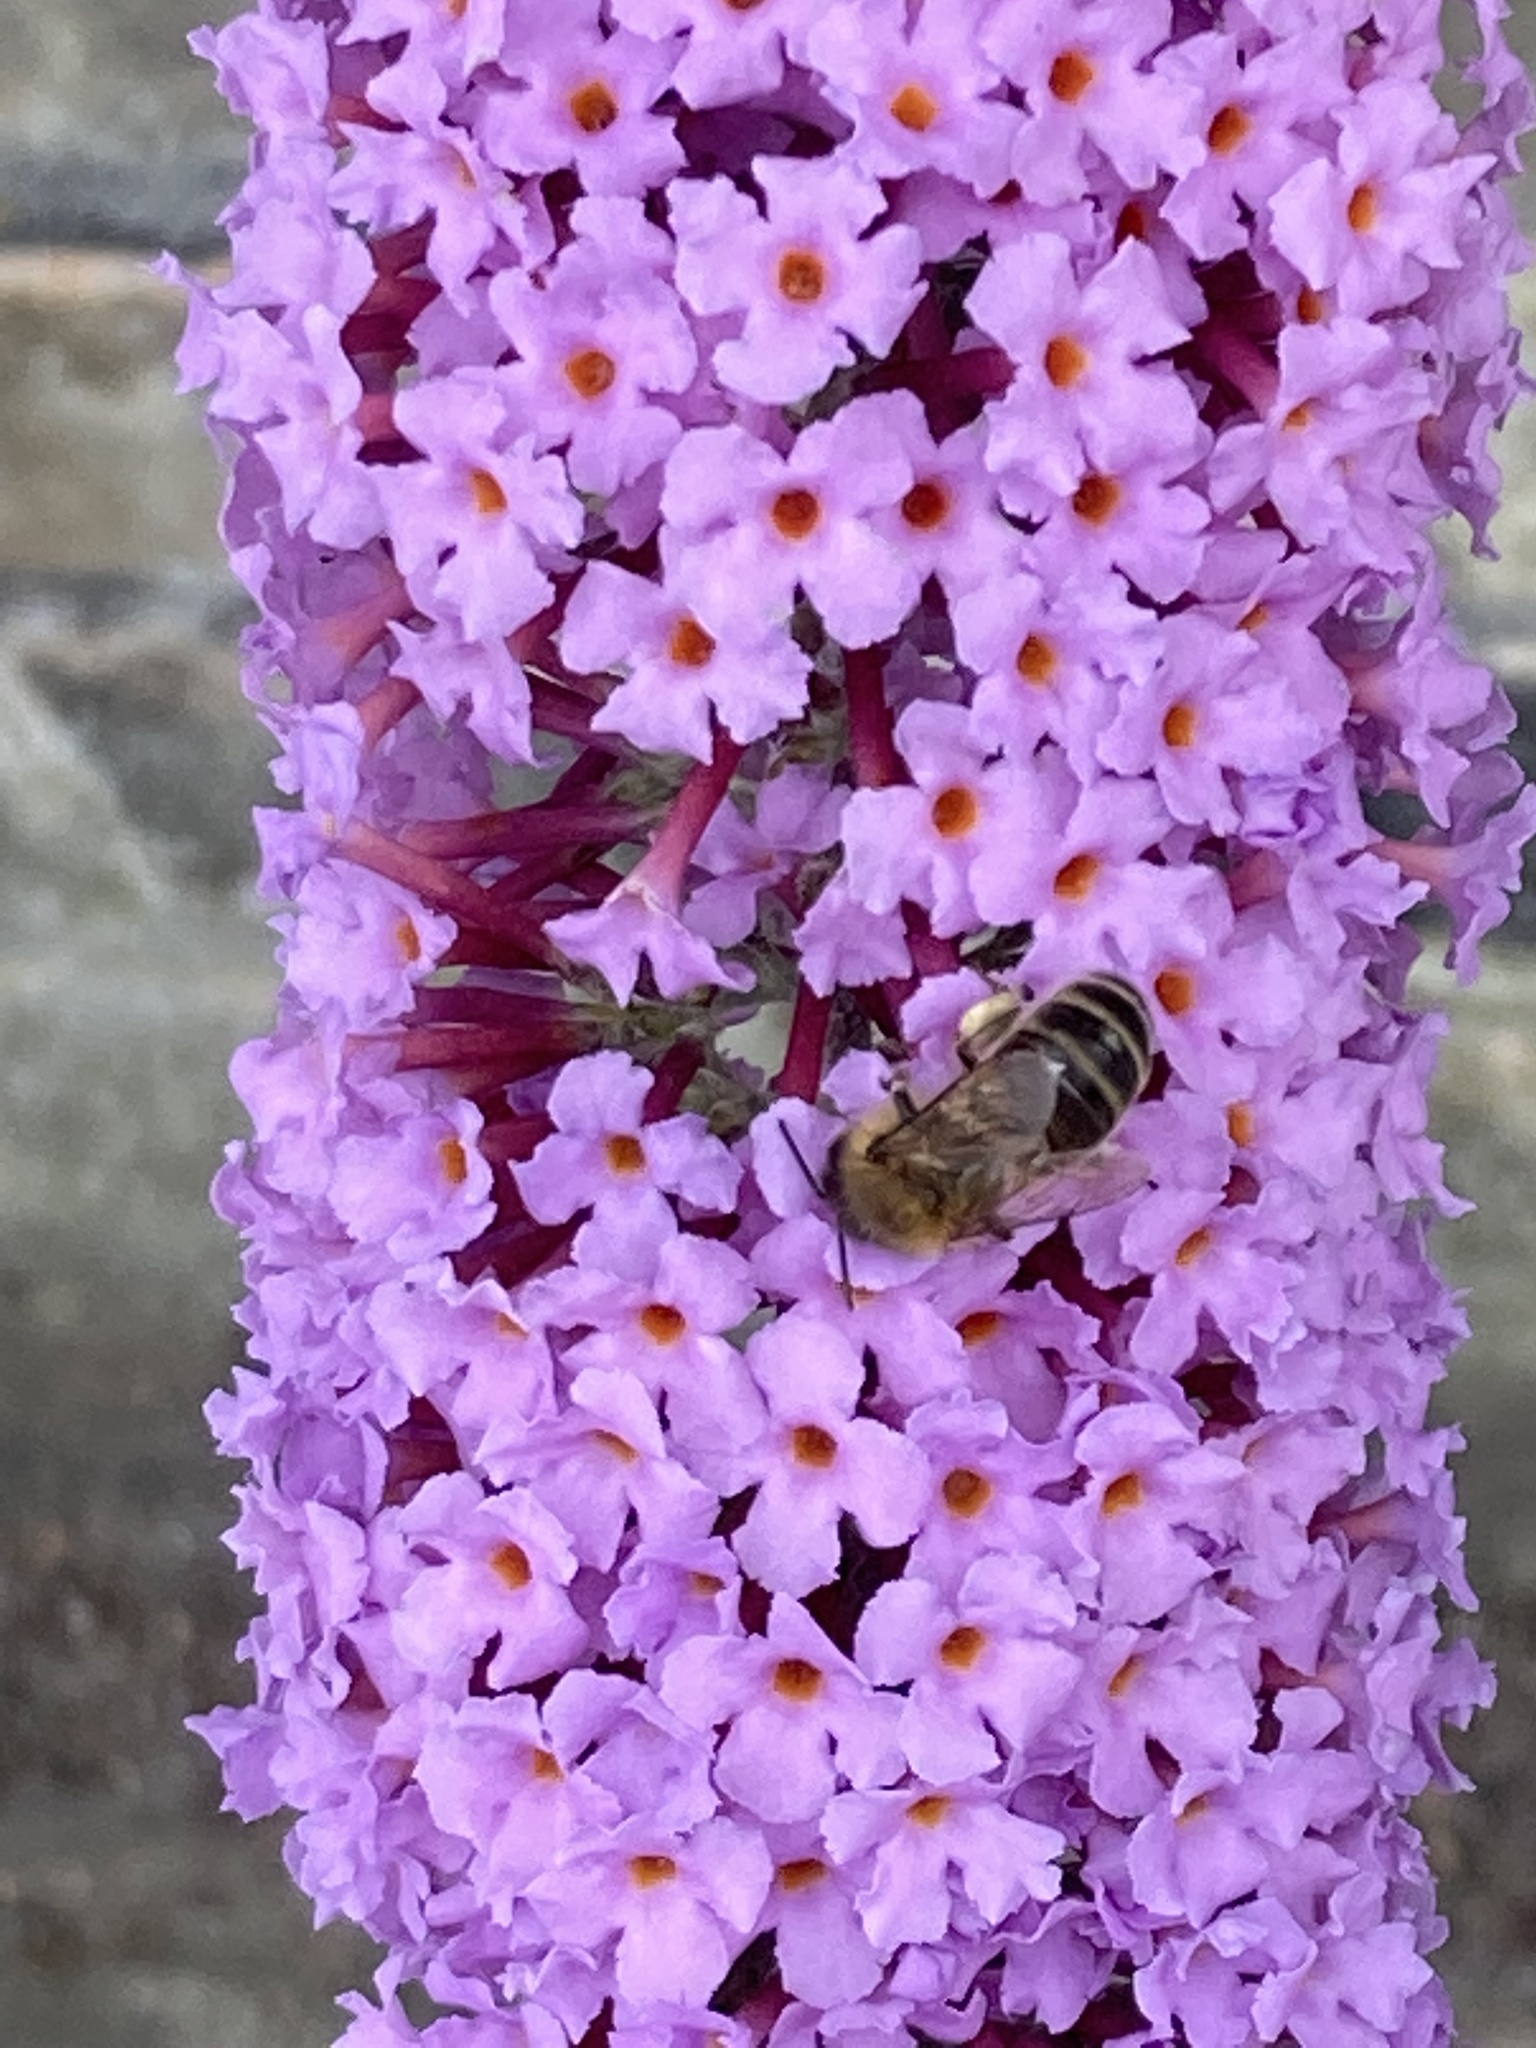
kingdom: Animalia
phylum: Arthropoda
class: Insecta
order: Hymenoptera
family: Apidae
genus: Apis
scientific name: Apis mellifera
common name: Honey bee
